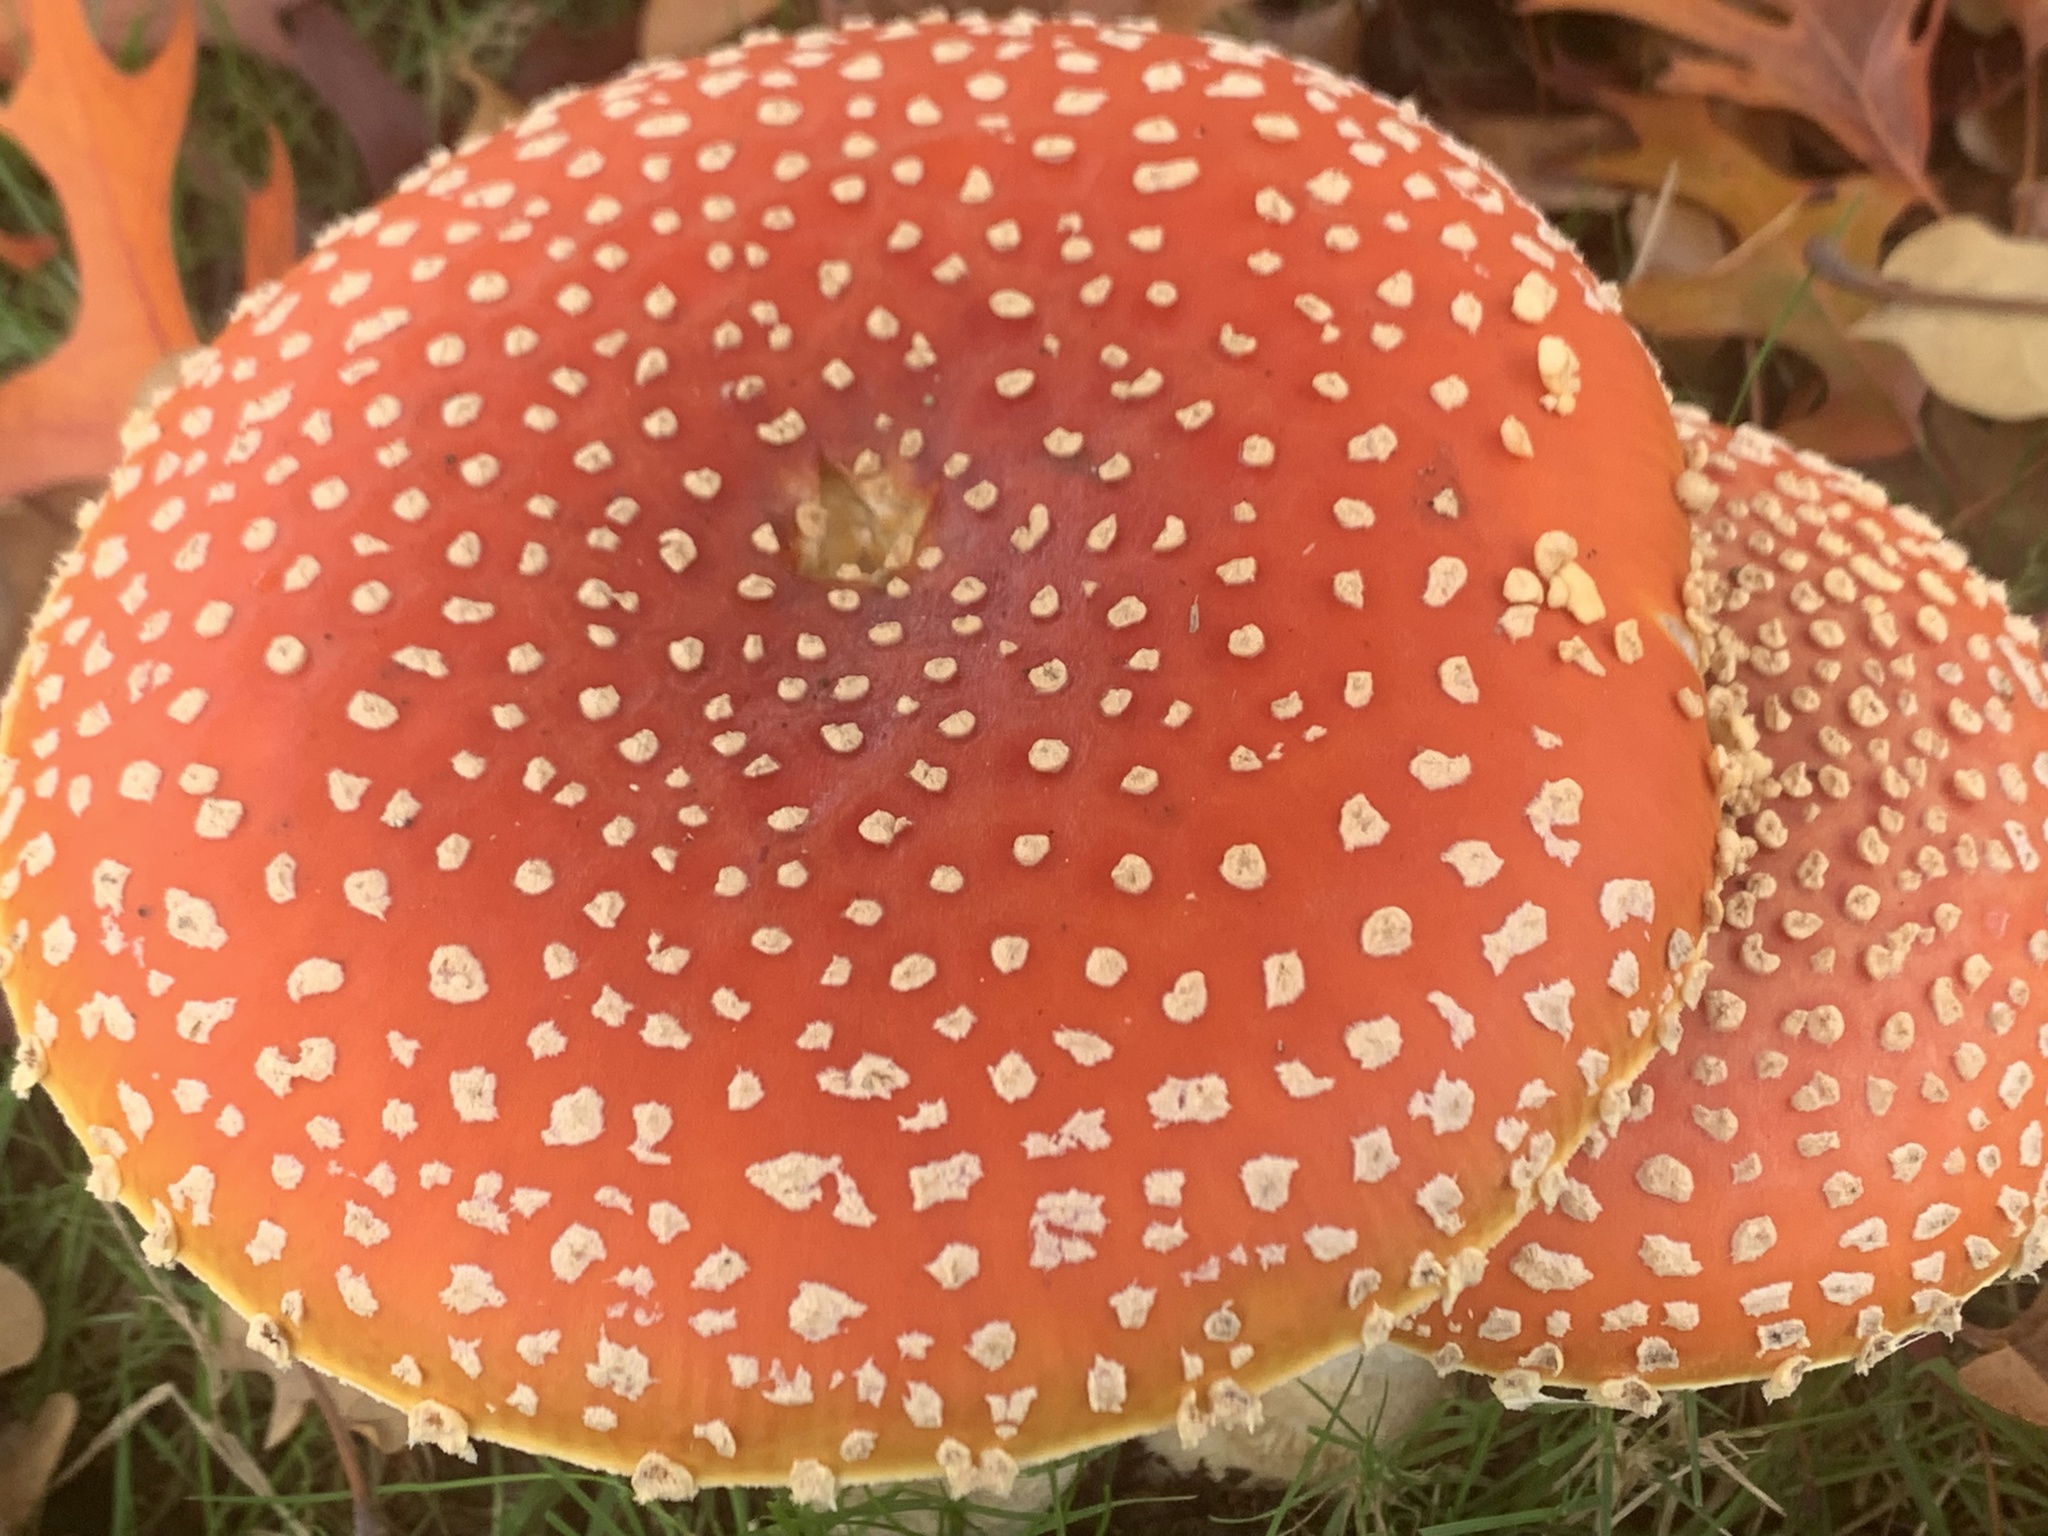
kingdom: Fungi
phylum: Basidiomycota
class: Agaricomycetes
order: Agaricales
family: Amanitaceae
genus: Amanita
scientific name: Amanita muscaria
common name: Fly agaric
